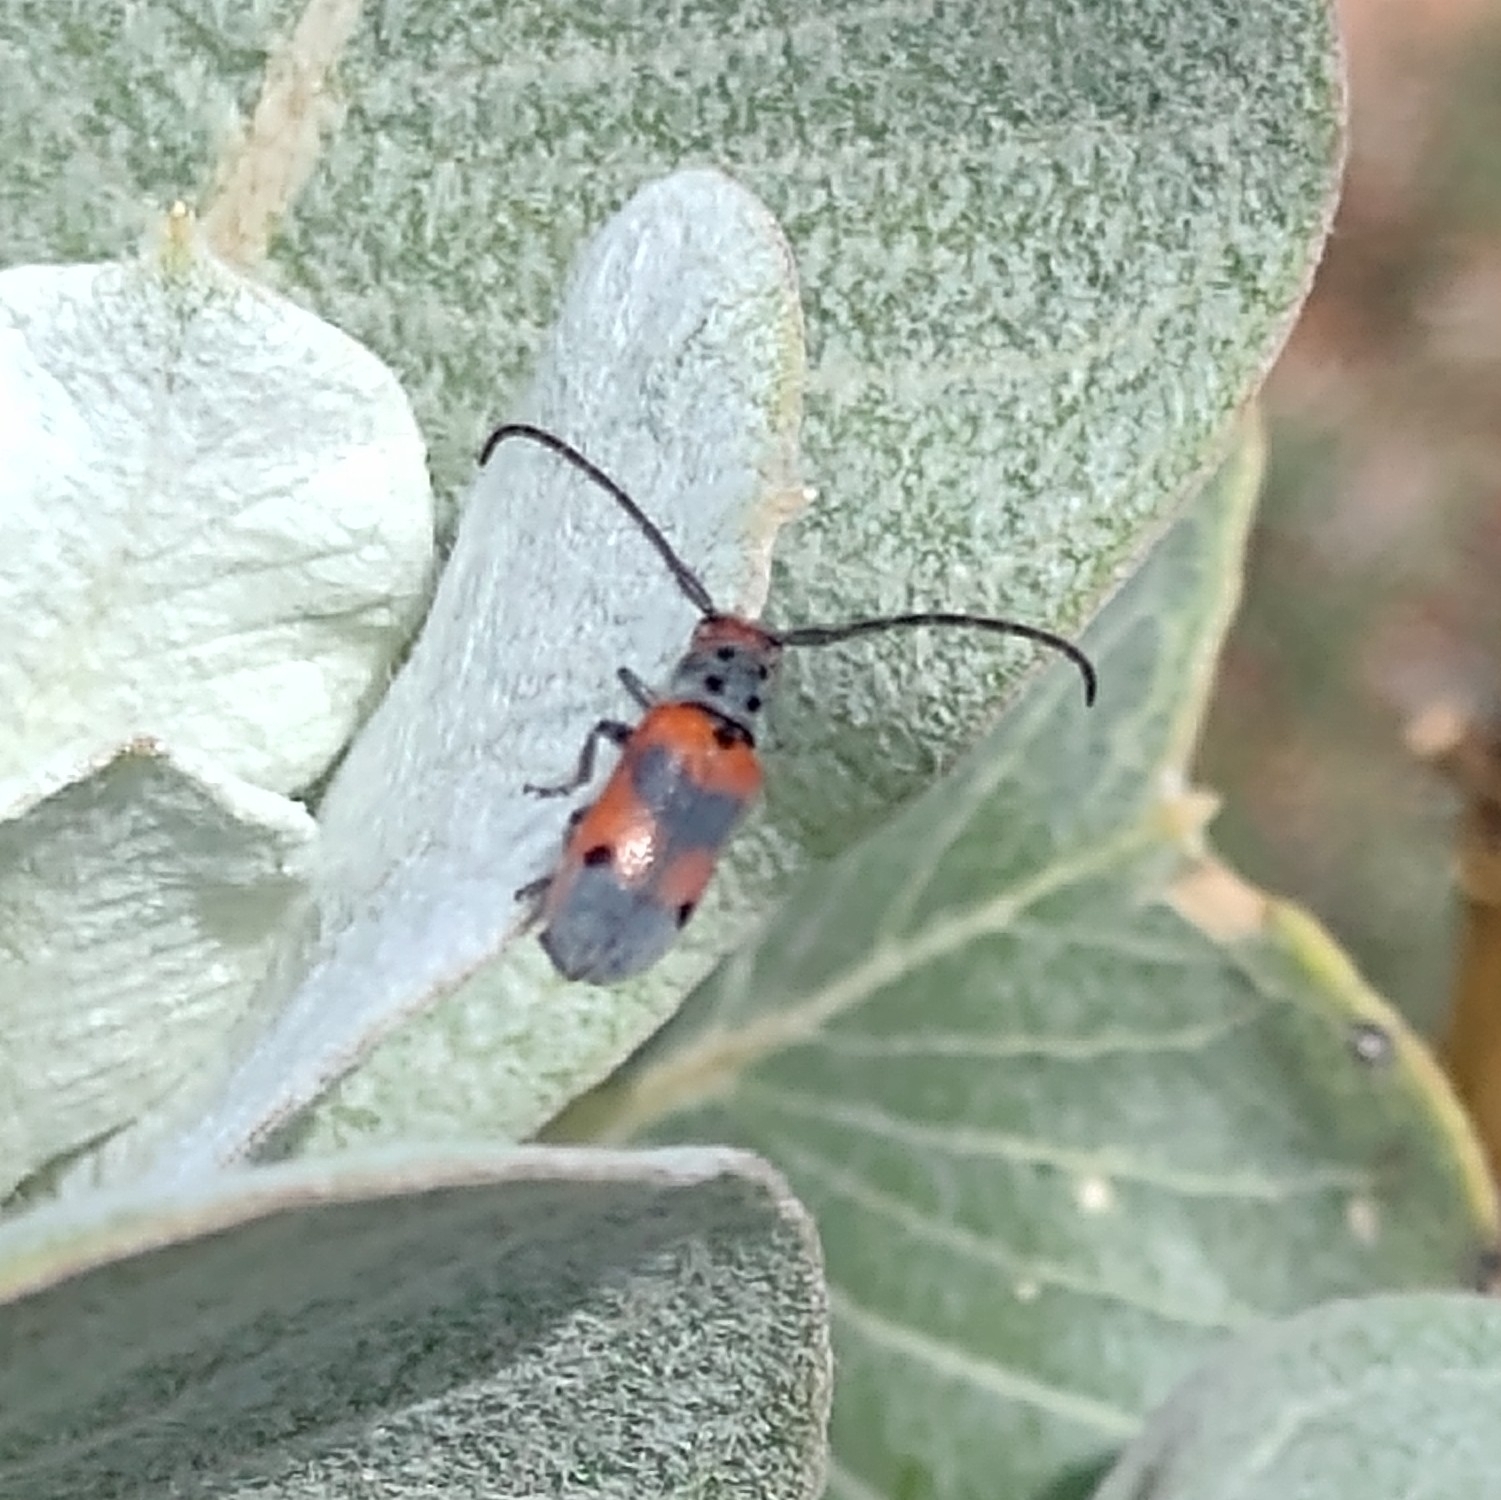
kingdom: Animalia
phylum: Arthropoda
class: Insecta
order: Coleoptera
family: Cerambycidae
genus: Tetraopes
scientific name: Tetraopes discoideus
